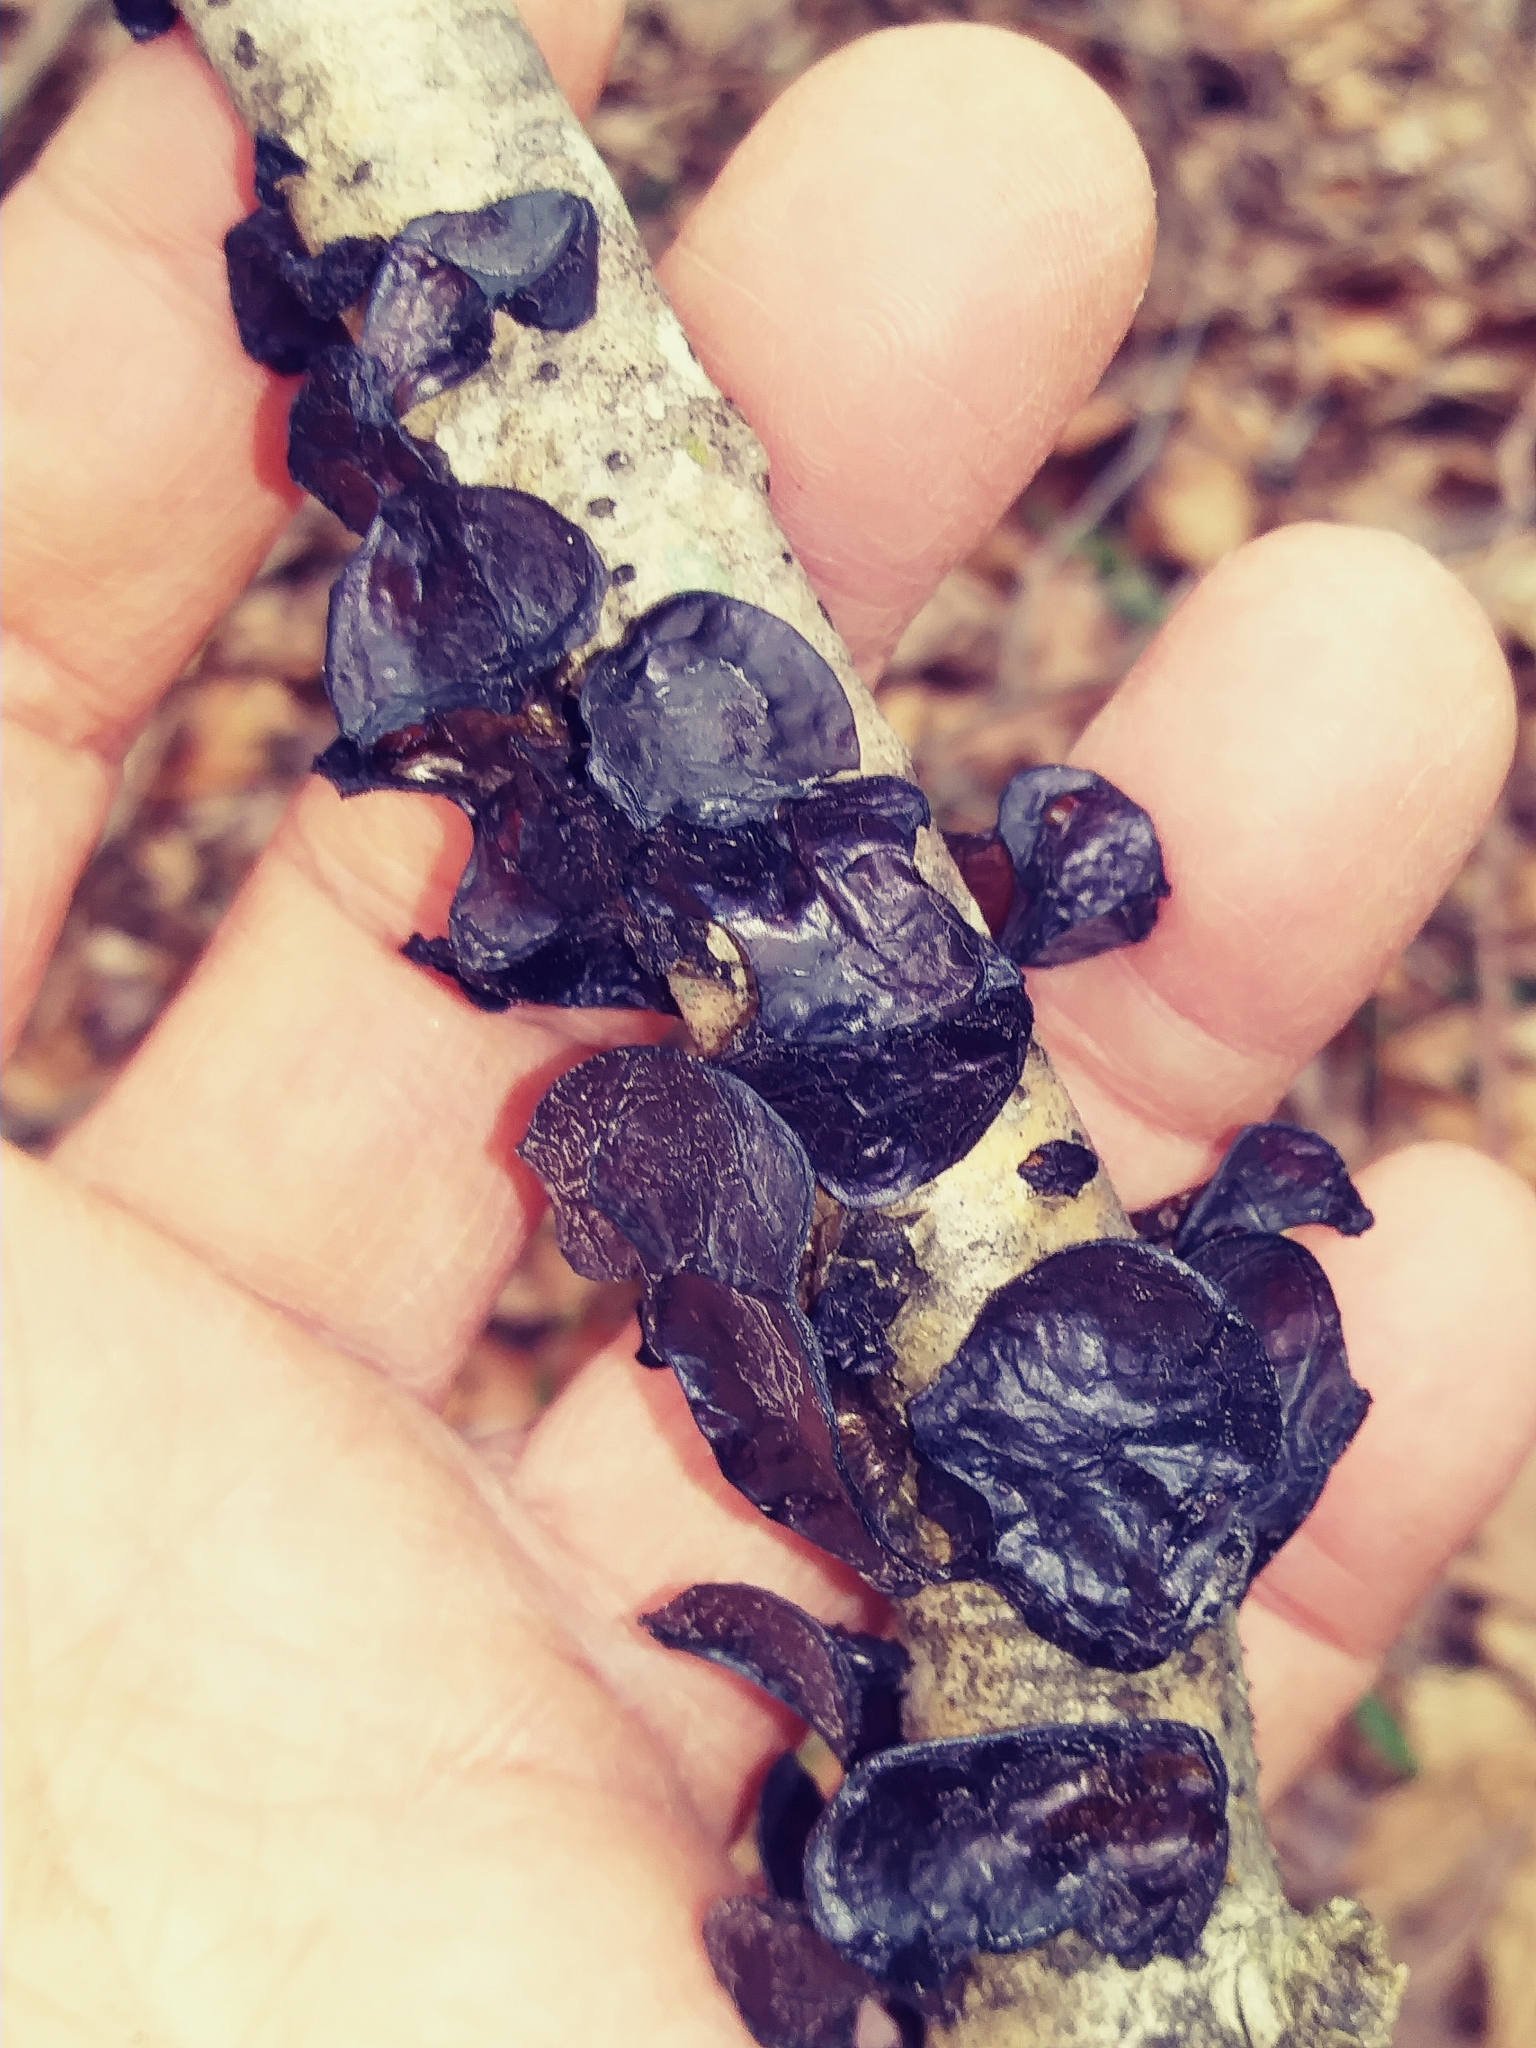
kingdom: Fungi
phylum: Basidiomycota
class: Agaricomycetes
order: Auriculariales
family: Auriculariaceae
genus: Exidia
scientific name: Exidia
